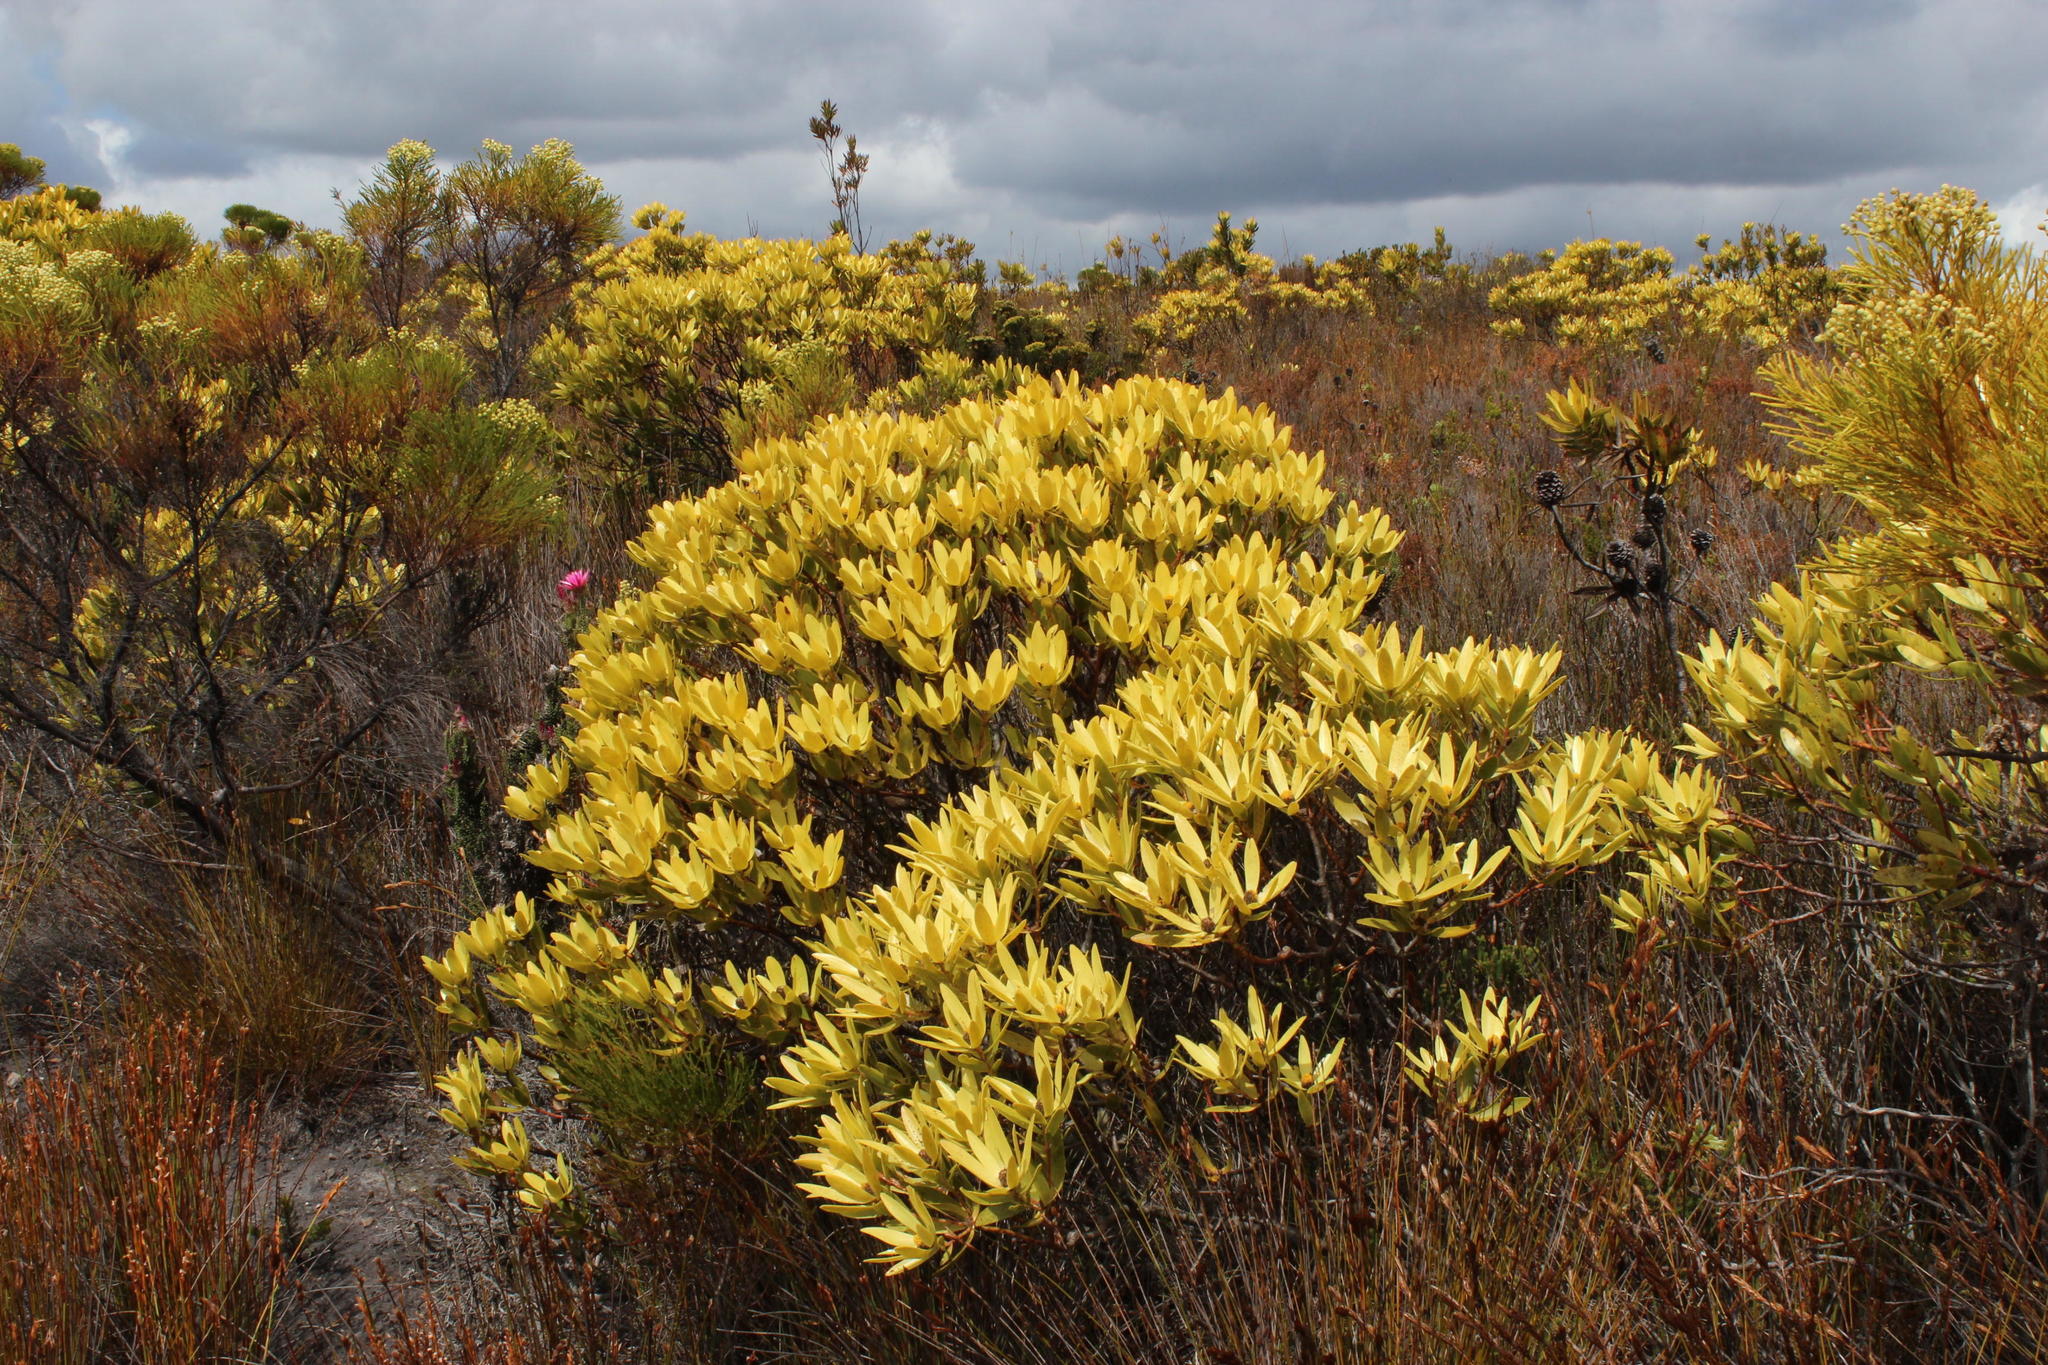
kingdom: Plantae
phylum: Tracheophyta
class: Magnoliopsida
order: Proteales
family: Proteaceae
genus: Leucadendron
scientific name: Leucadendron gandogeri
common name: Broad-leaf conebush
